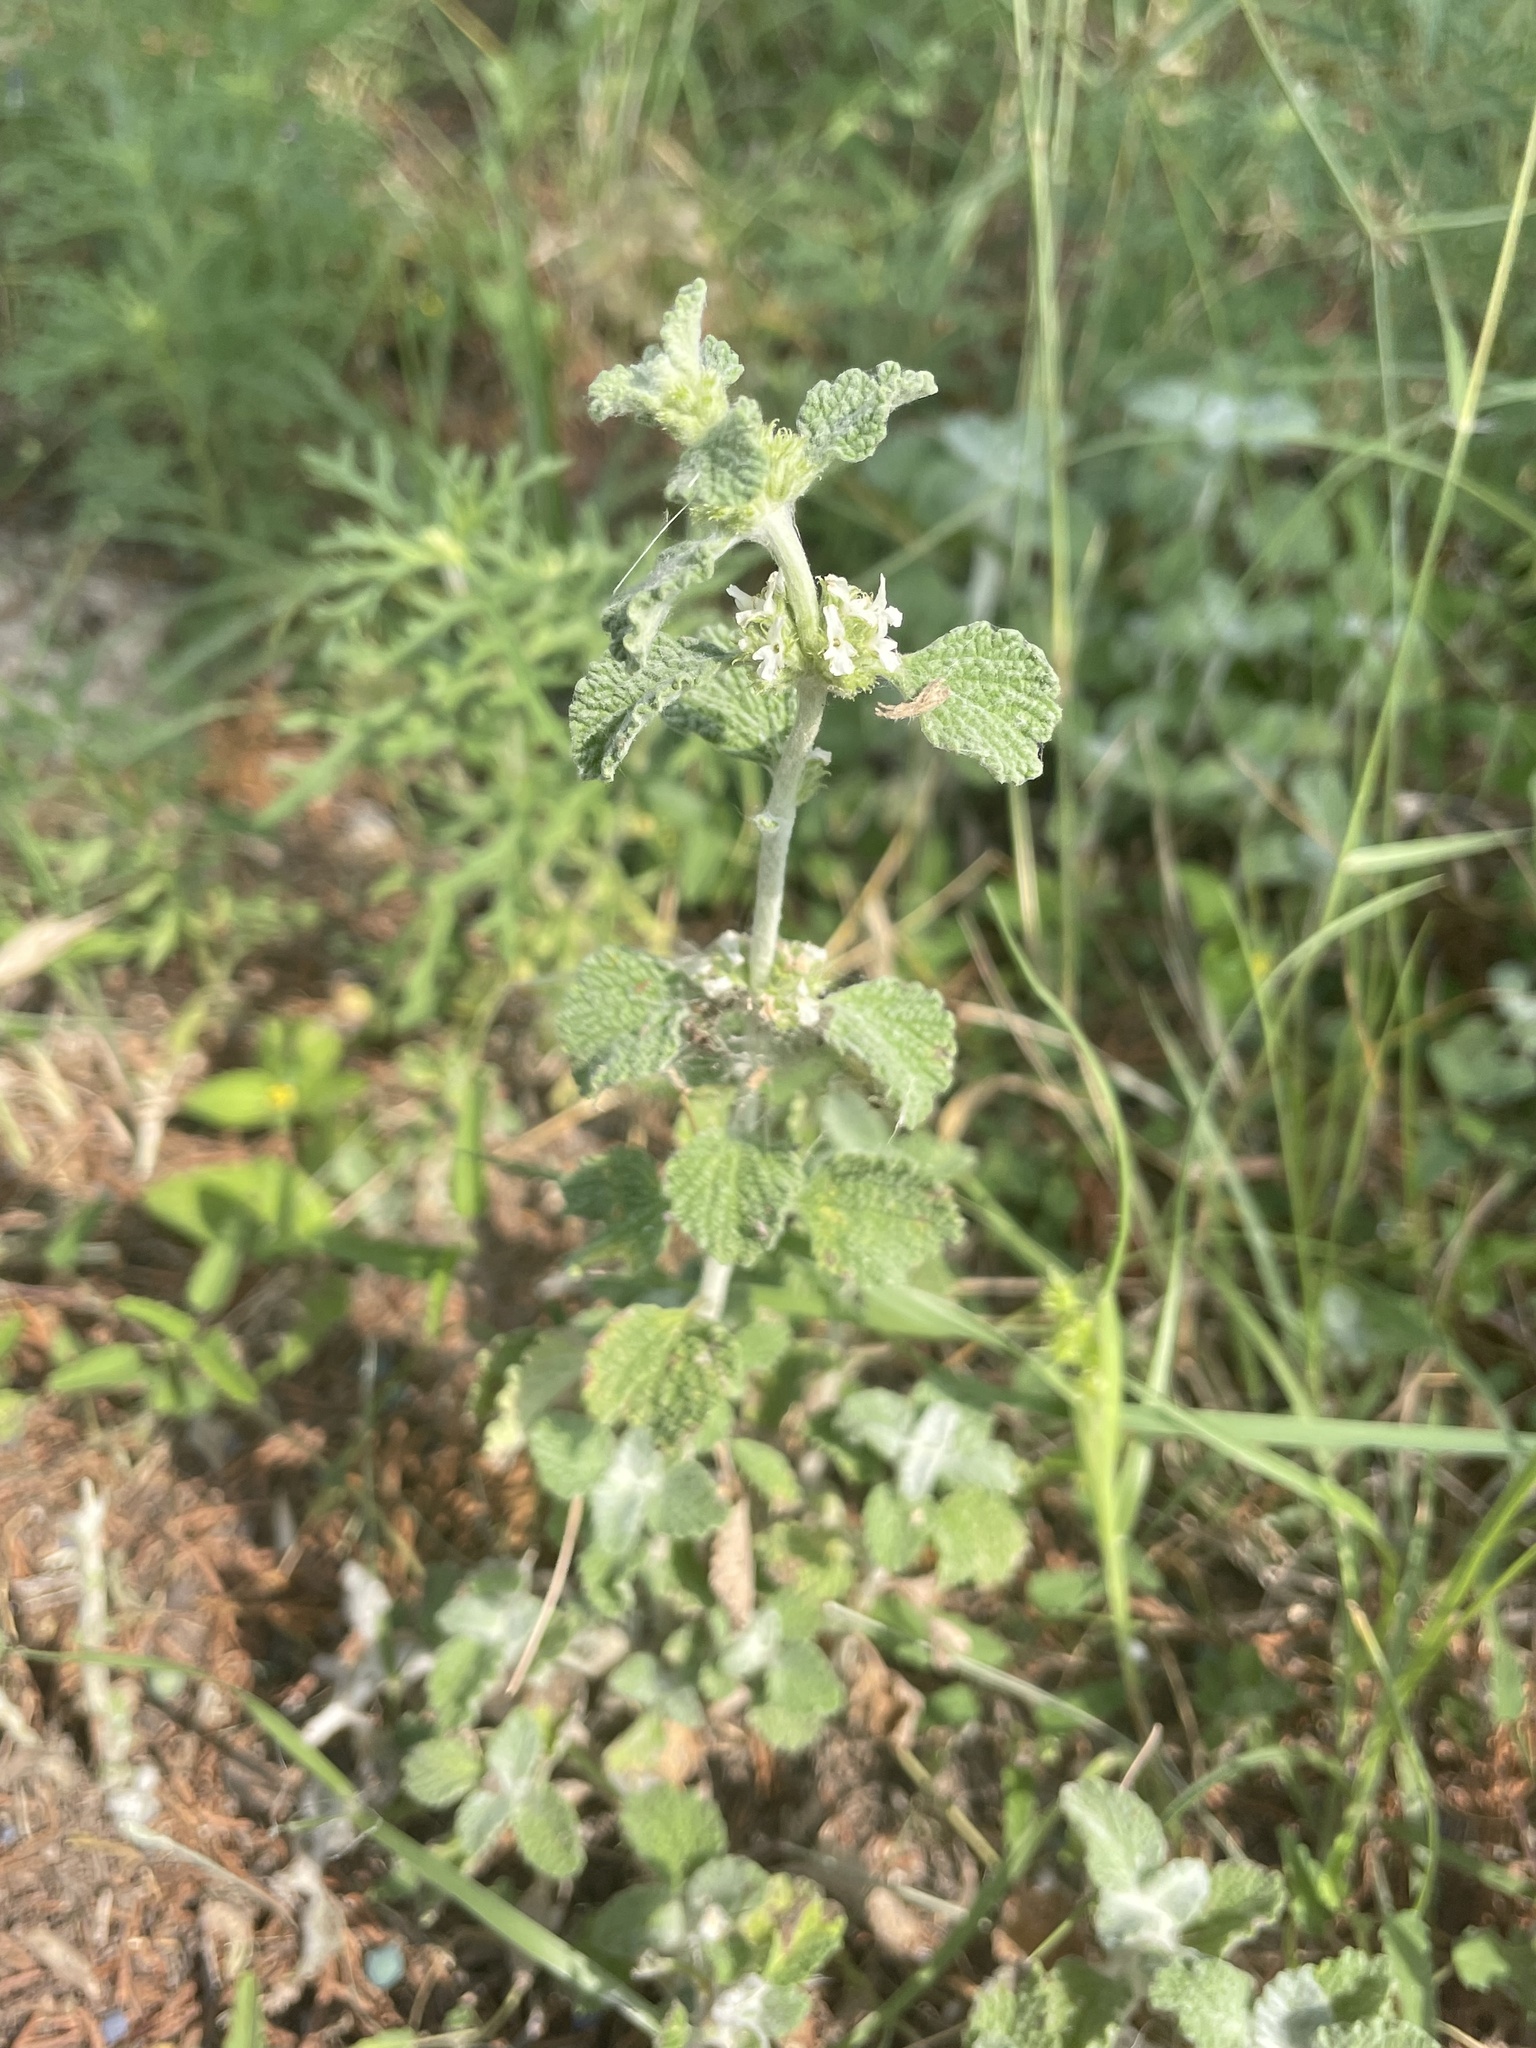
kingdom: Plantae
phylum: Tracheophyta
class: Magnoliopsida
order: Lamiales
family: Lamiaceae
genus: Marrubium
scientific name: Marrubium vulgare
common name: Horehound
